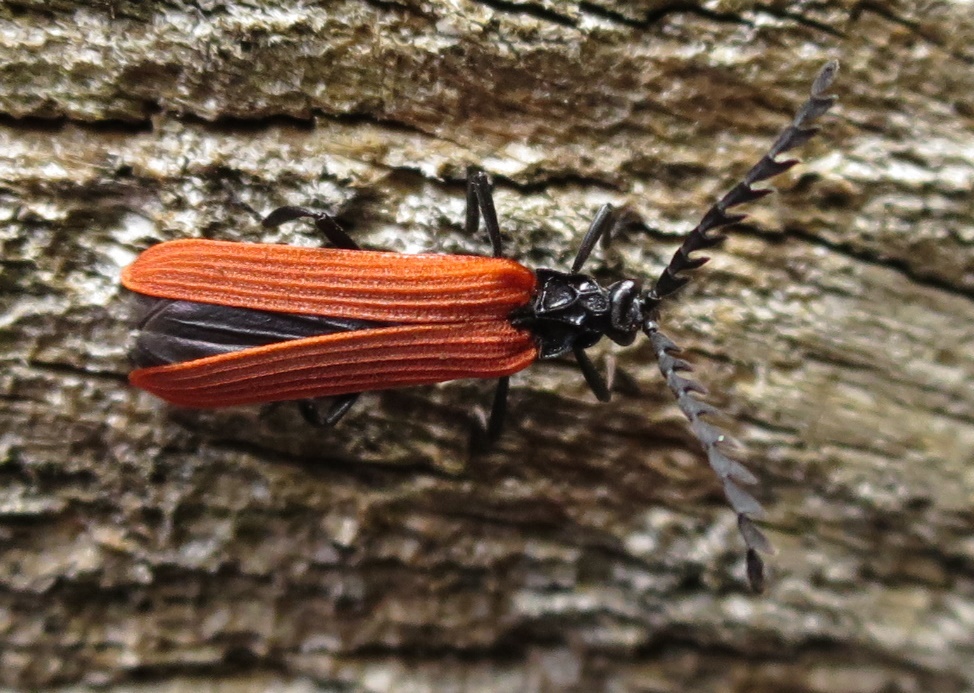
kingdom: Animalia
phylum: Arthropoda
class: Insecta
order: Coleoptera
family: Lycidae
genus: Porrostoma
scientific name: Porrostoma rufipenne
